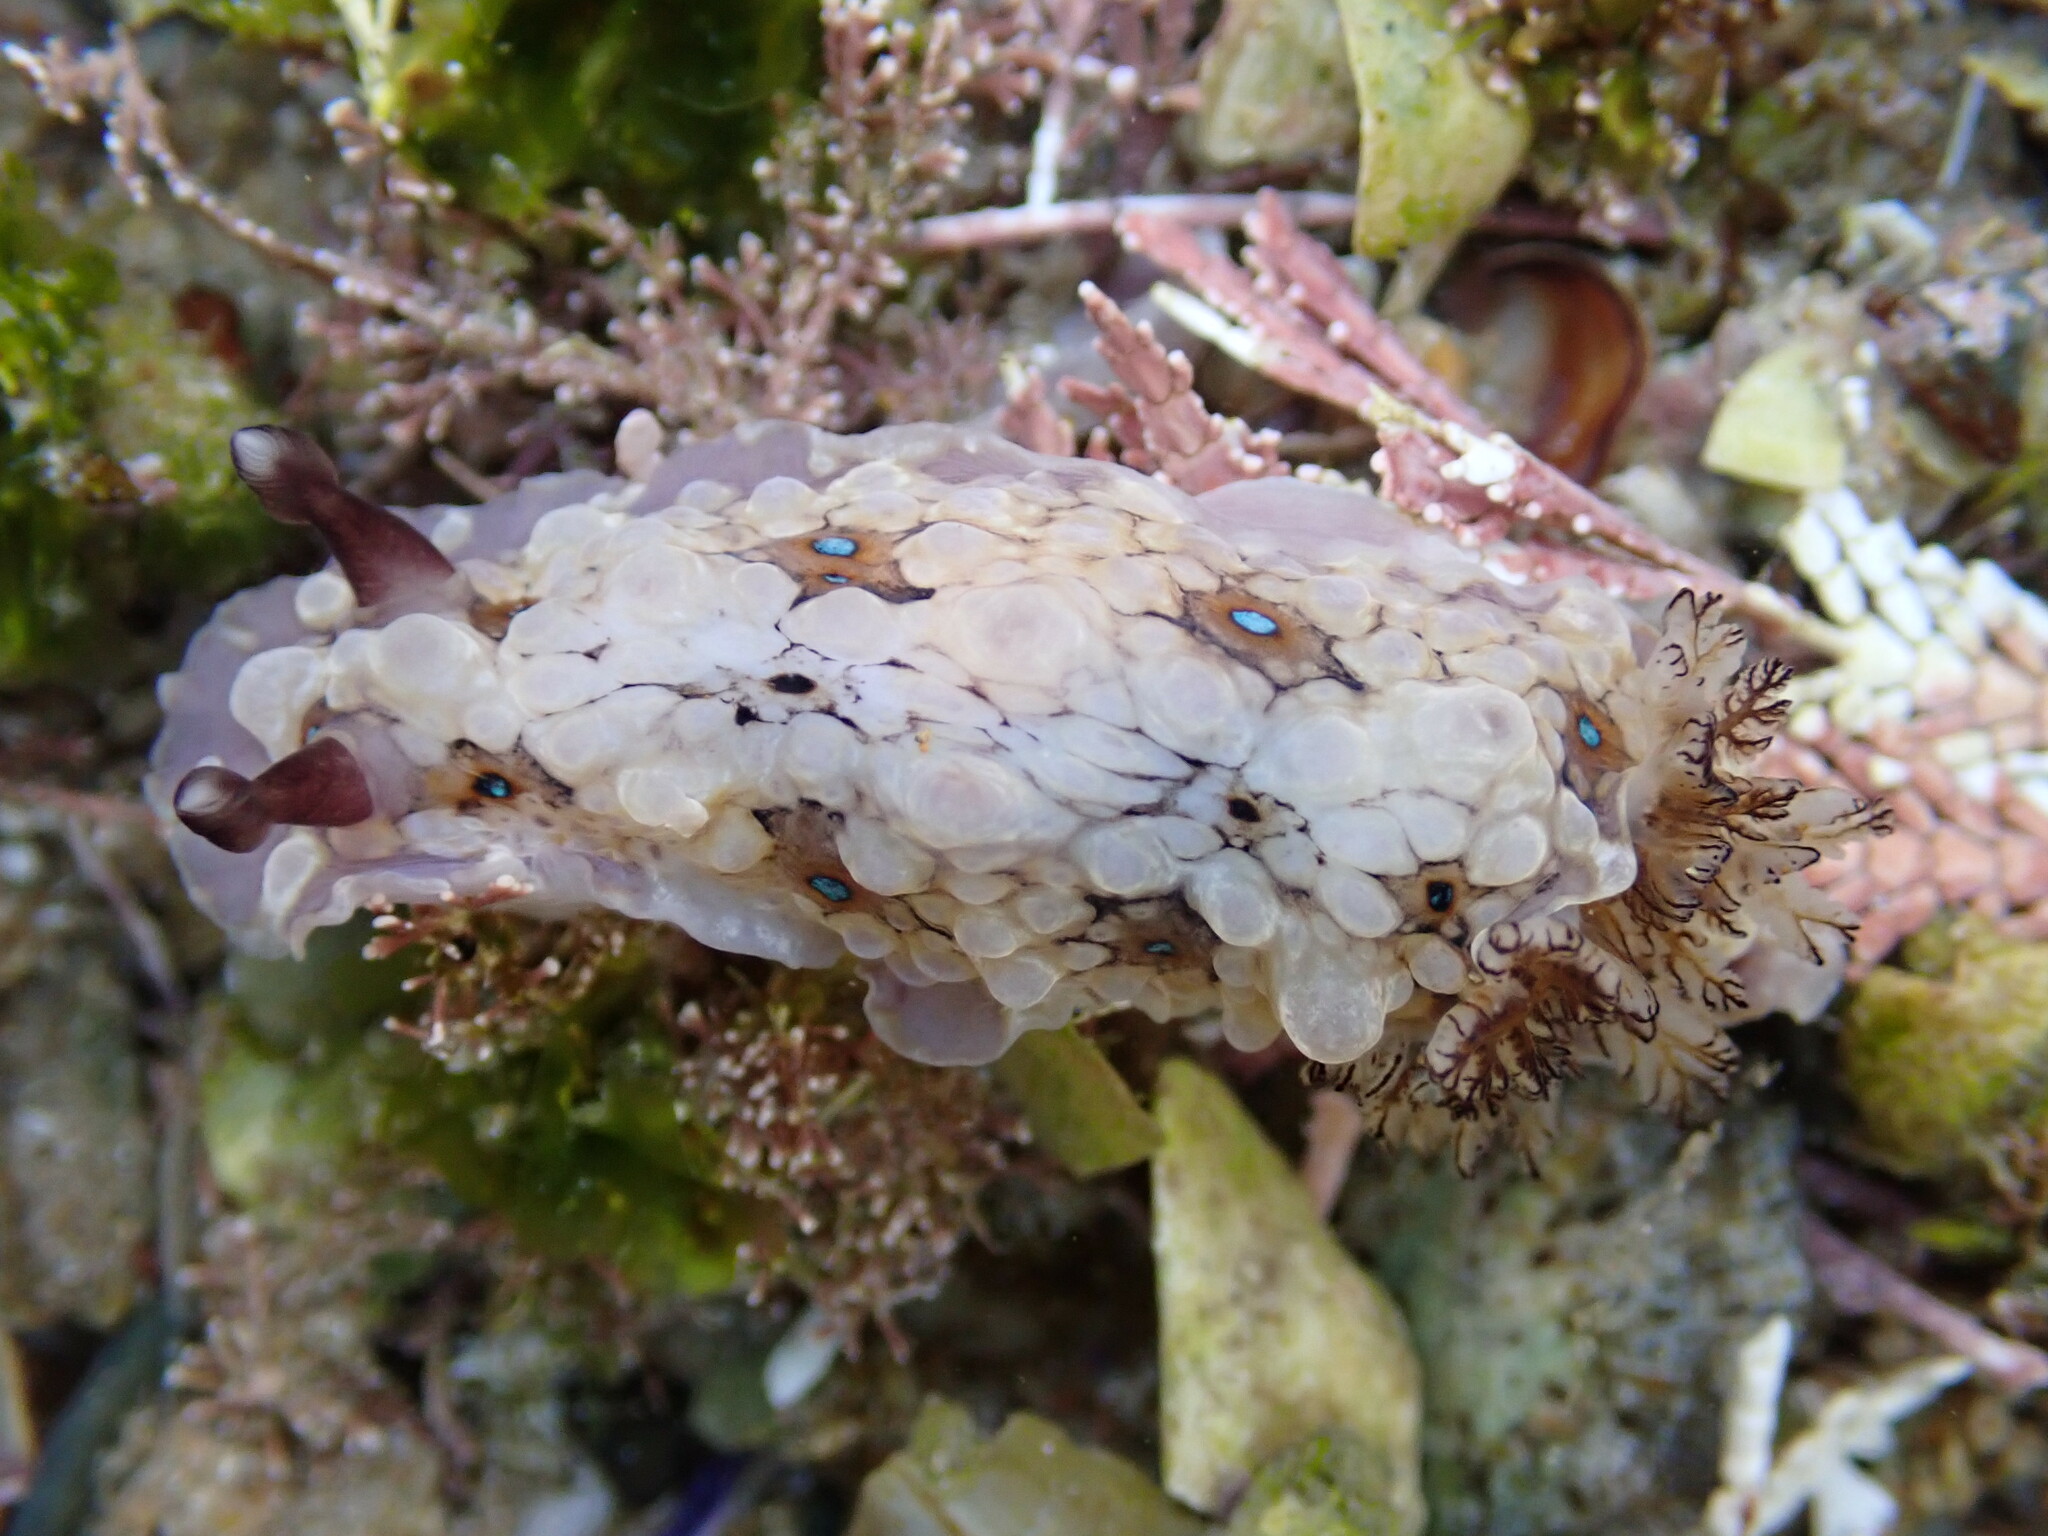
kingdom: Animalia
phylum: Mollusca
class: Gastropoda
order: Nudibranchia
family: Dendrodorididae
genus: Dendrodoris
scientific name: Dendrodoris krusensternii
